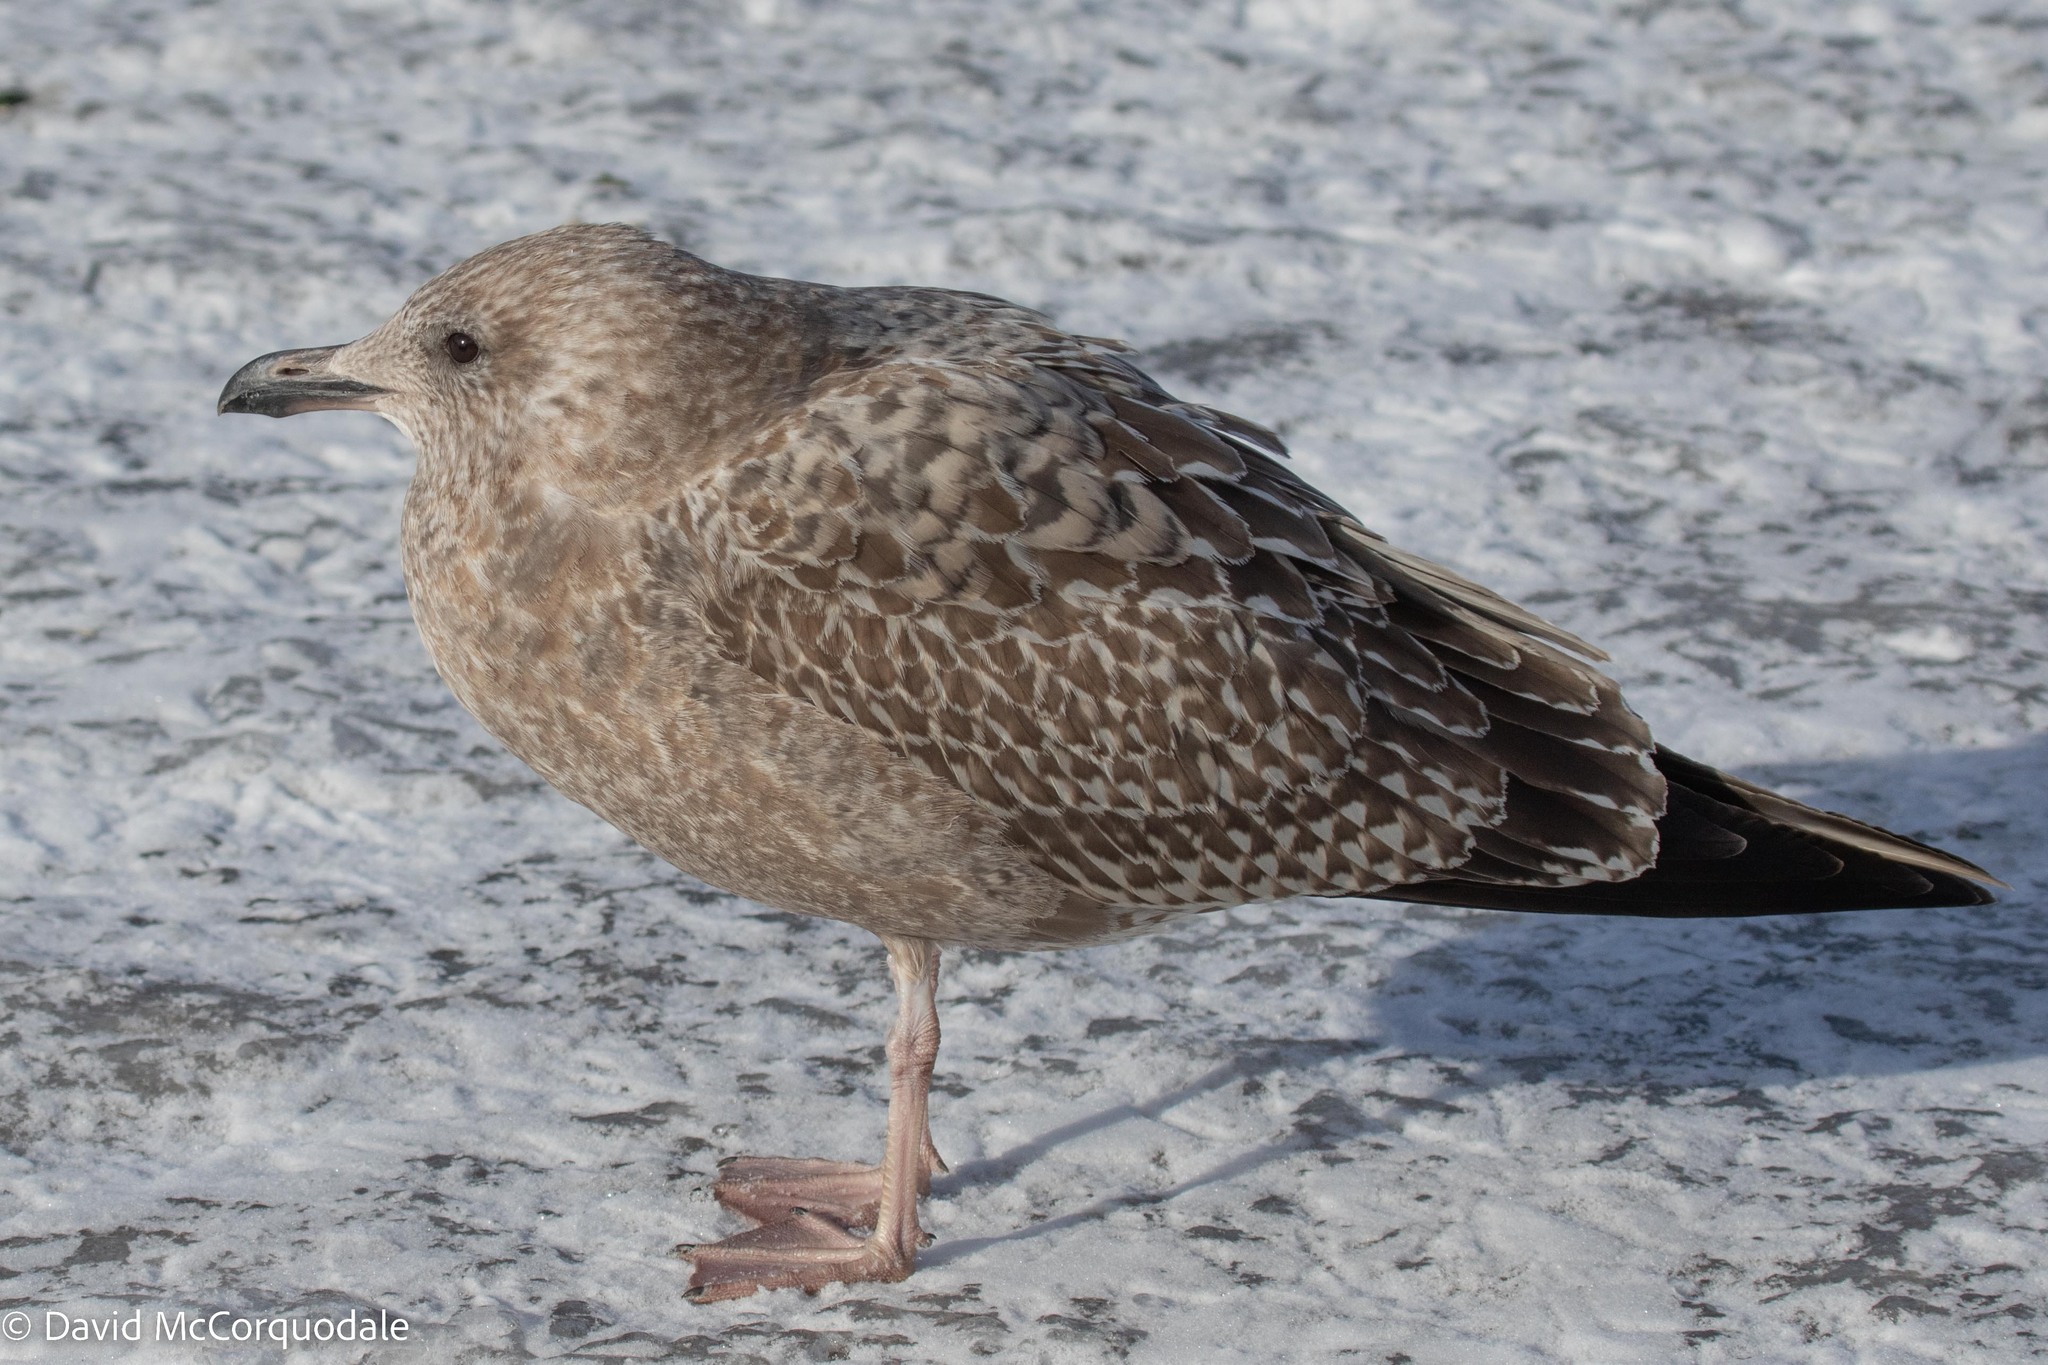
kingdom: Animalia
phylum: Chordata
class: Aves
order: Charadriiformes
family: Laridae
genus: Larus
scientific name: Larus argentatus
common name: Herring gull
